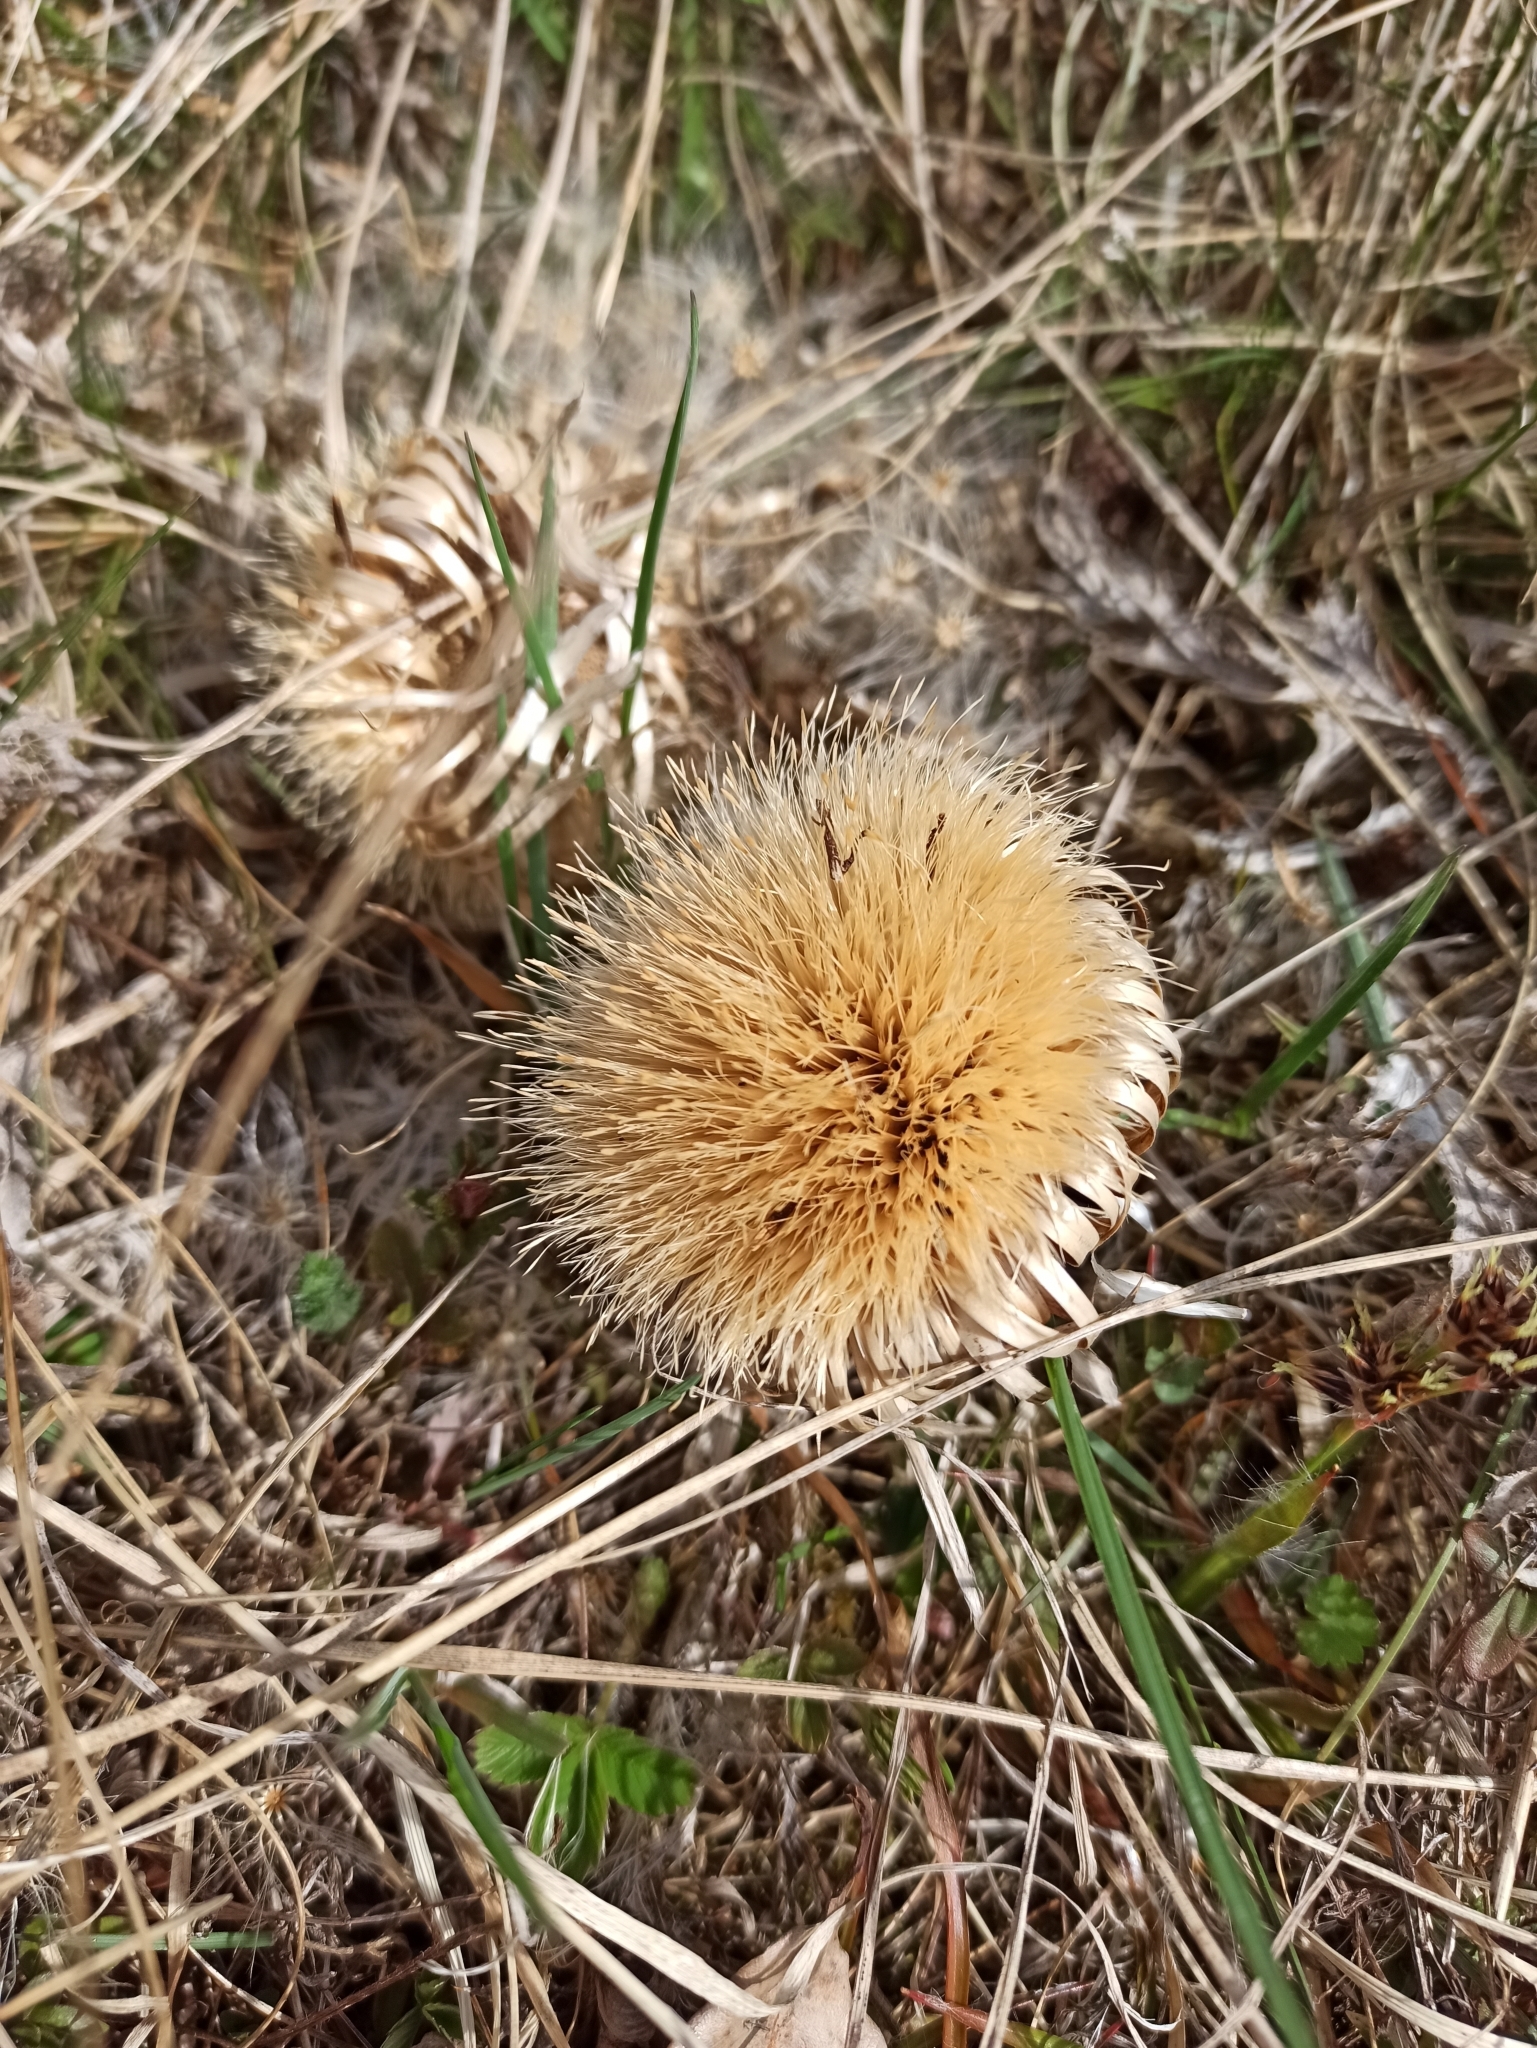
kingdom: Plantae
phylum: Tracheophyta
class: Magnoliopsida
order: Asterales
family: Asteraceae
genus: Carlina
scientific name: Carlina acaulis
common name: Stemless carline thistle
